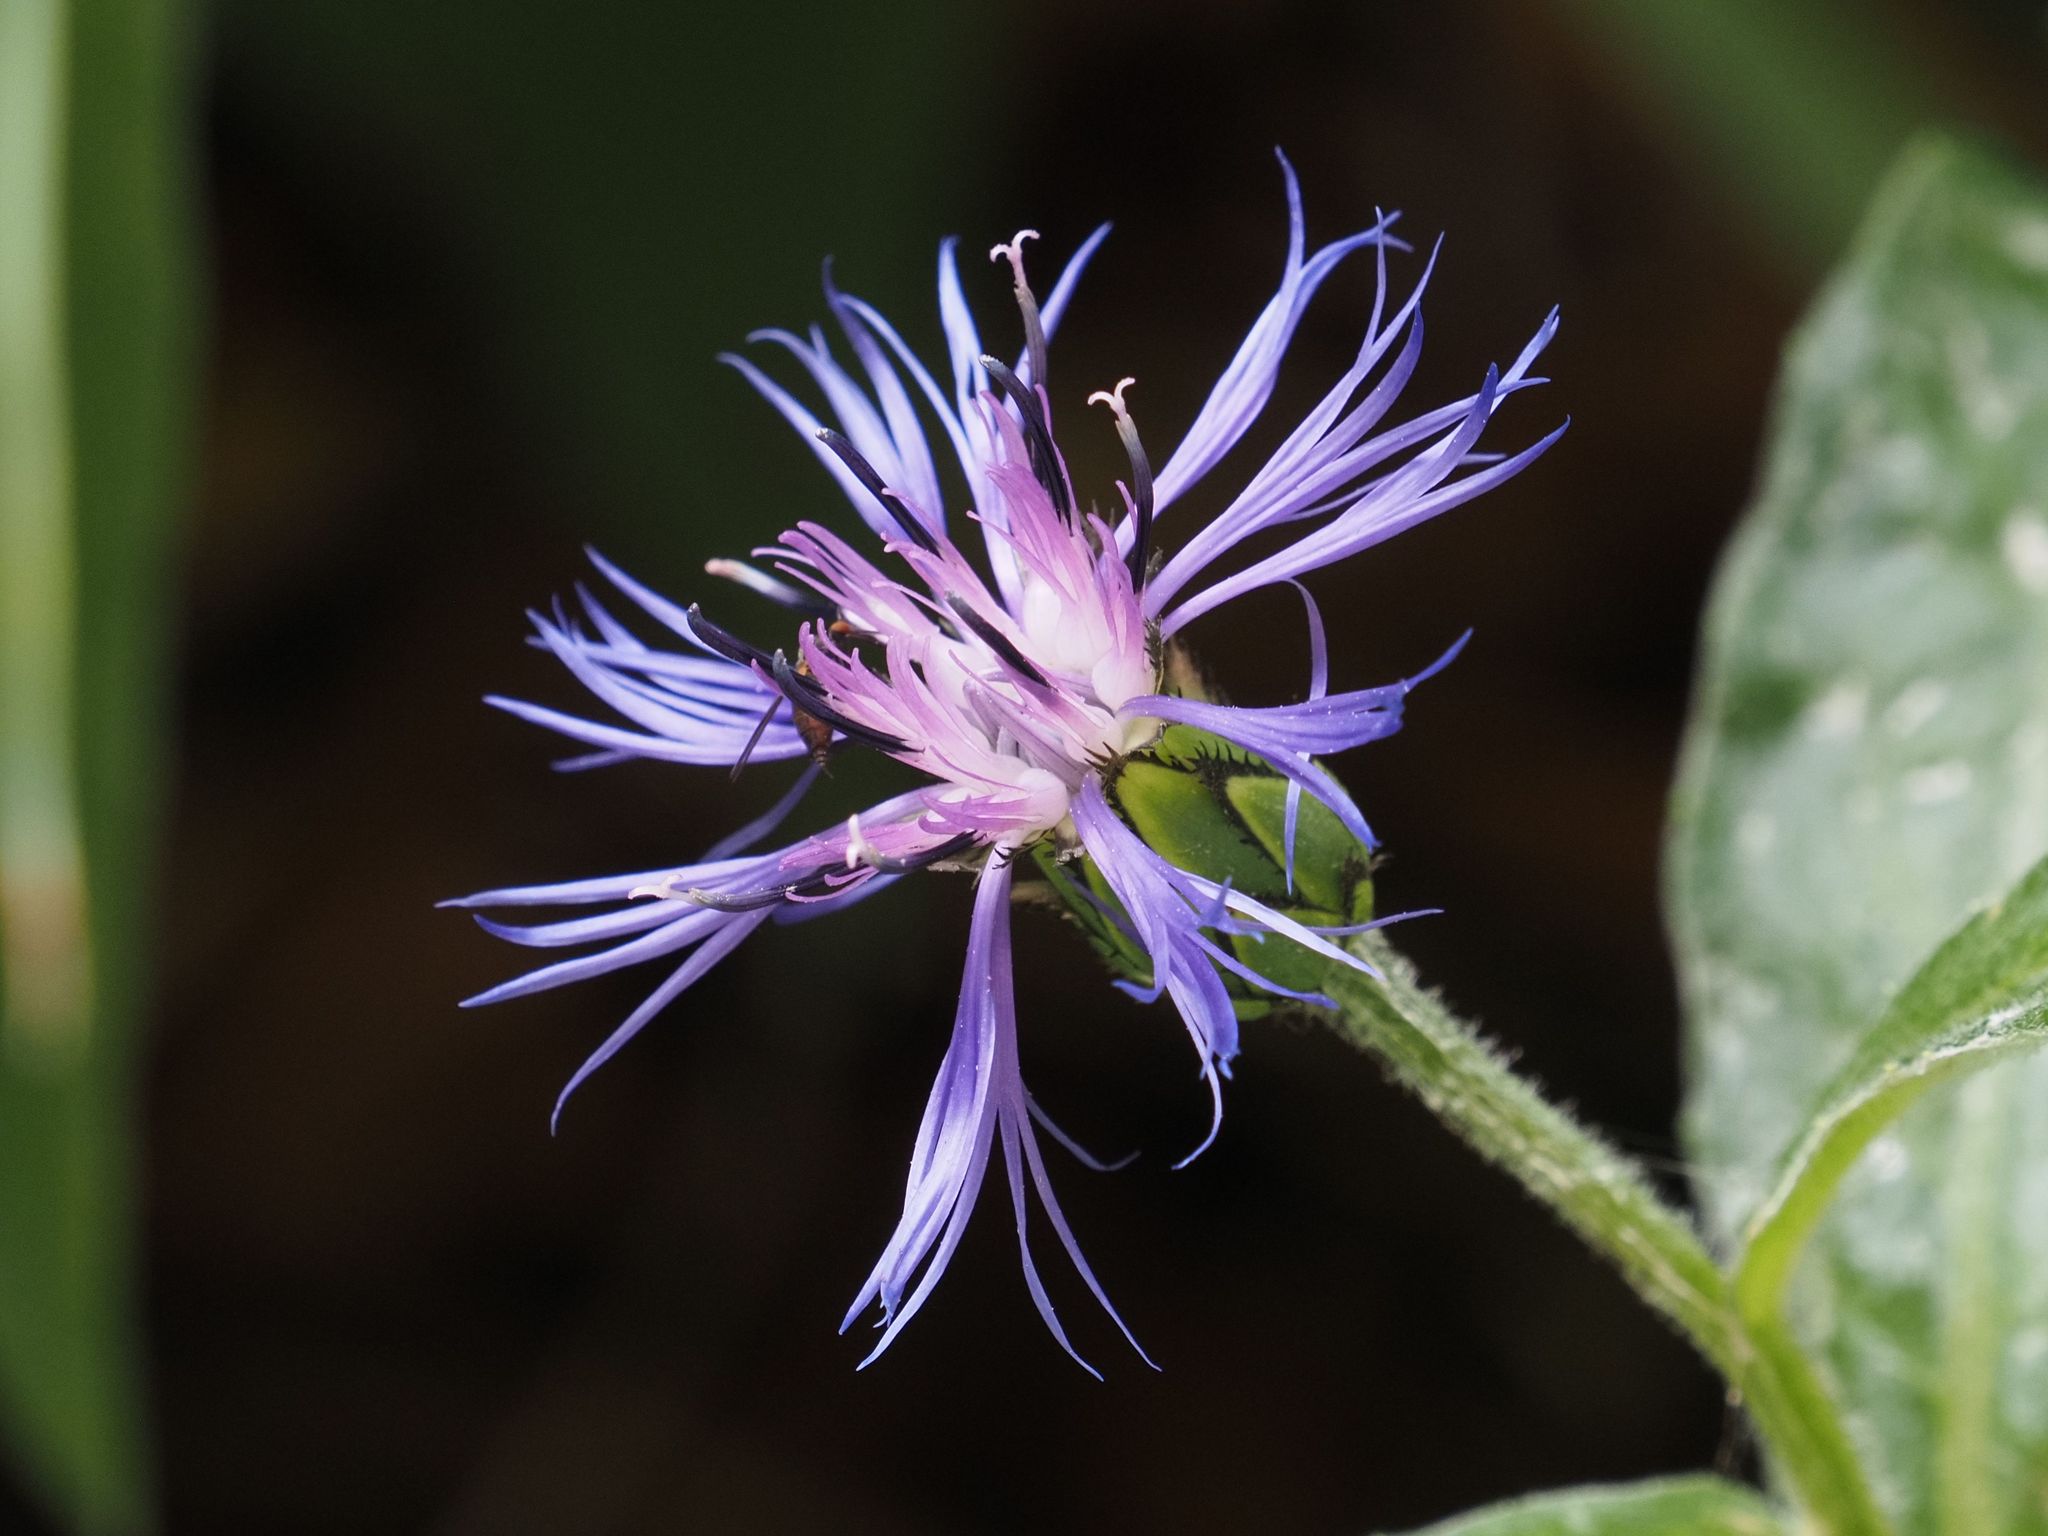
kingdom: Plantae
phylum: Tracheophyta
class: Magnoliopsida
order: Asterales
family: Asteraceae
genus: Centaurea
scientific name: Centaurea montana
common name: Perennial cornflower
